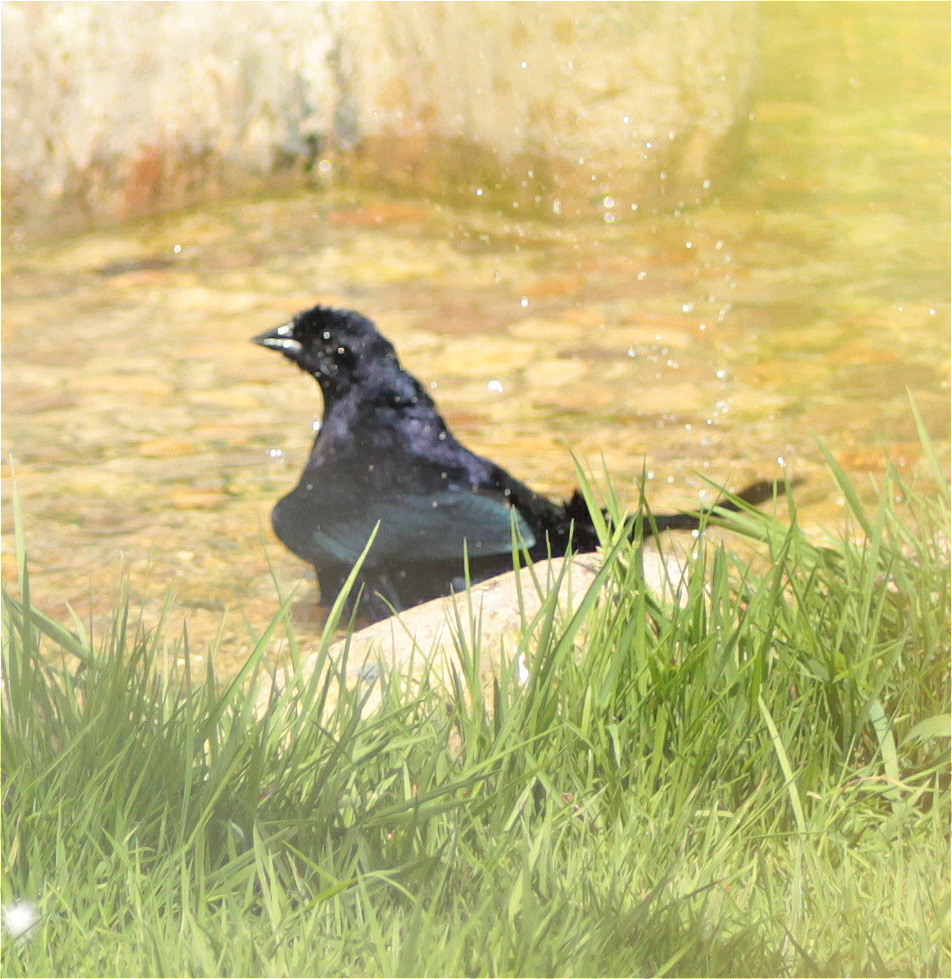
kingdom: Animalia
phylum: Chordata
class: Aves
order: Passeriformes
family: Icteridae
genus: Molothrus
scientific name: Molothrus bonariensis
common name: Shiny cowbird
